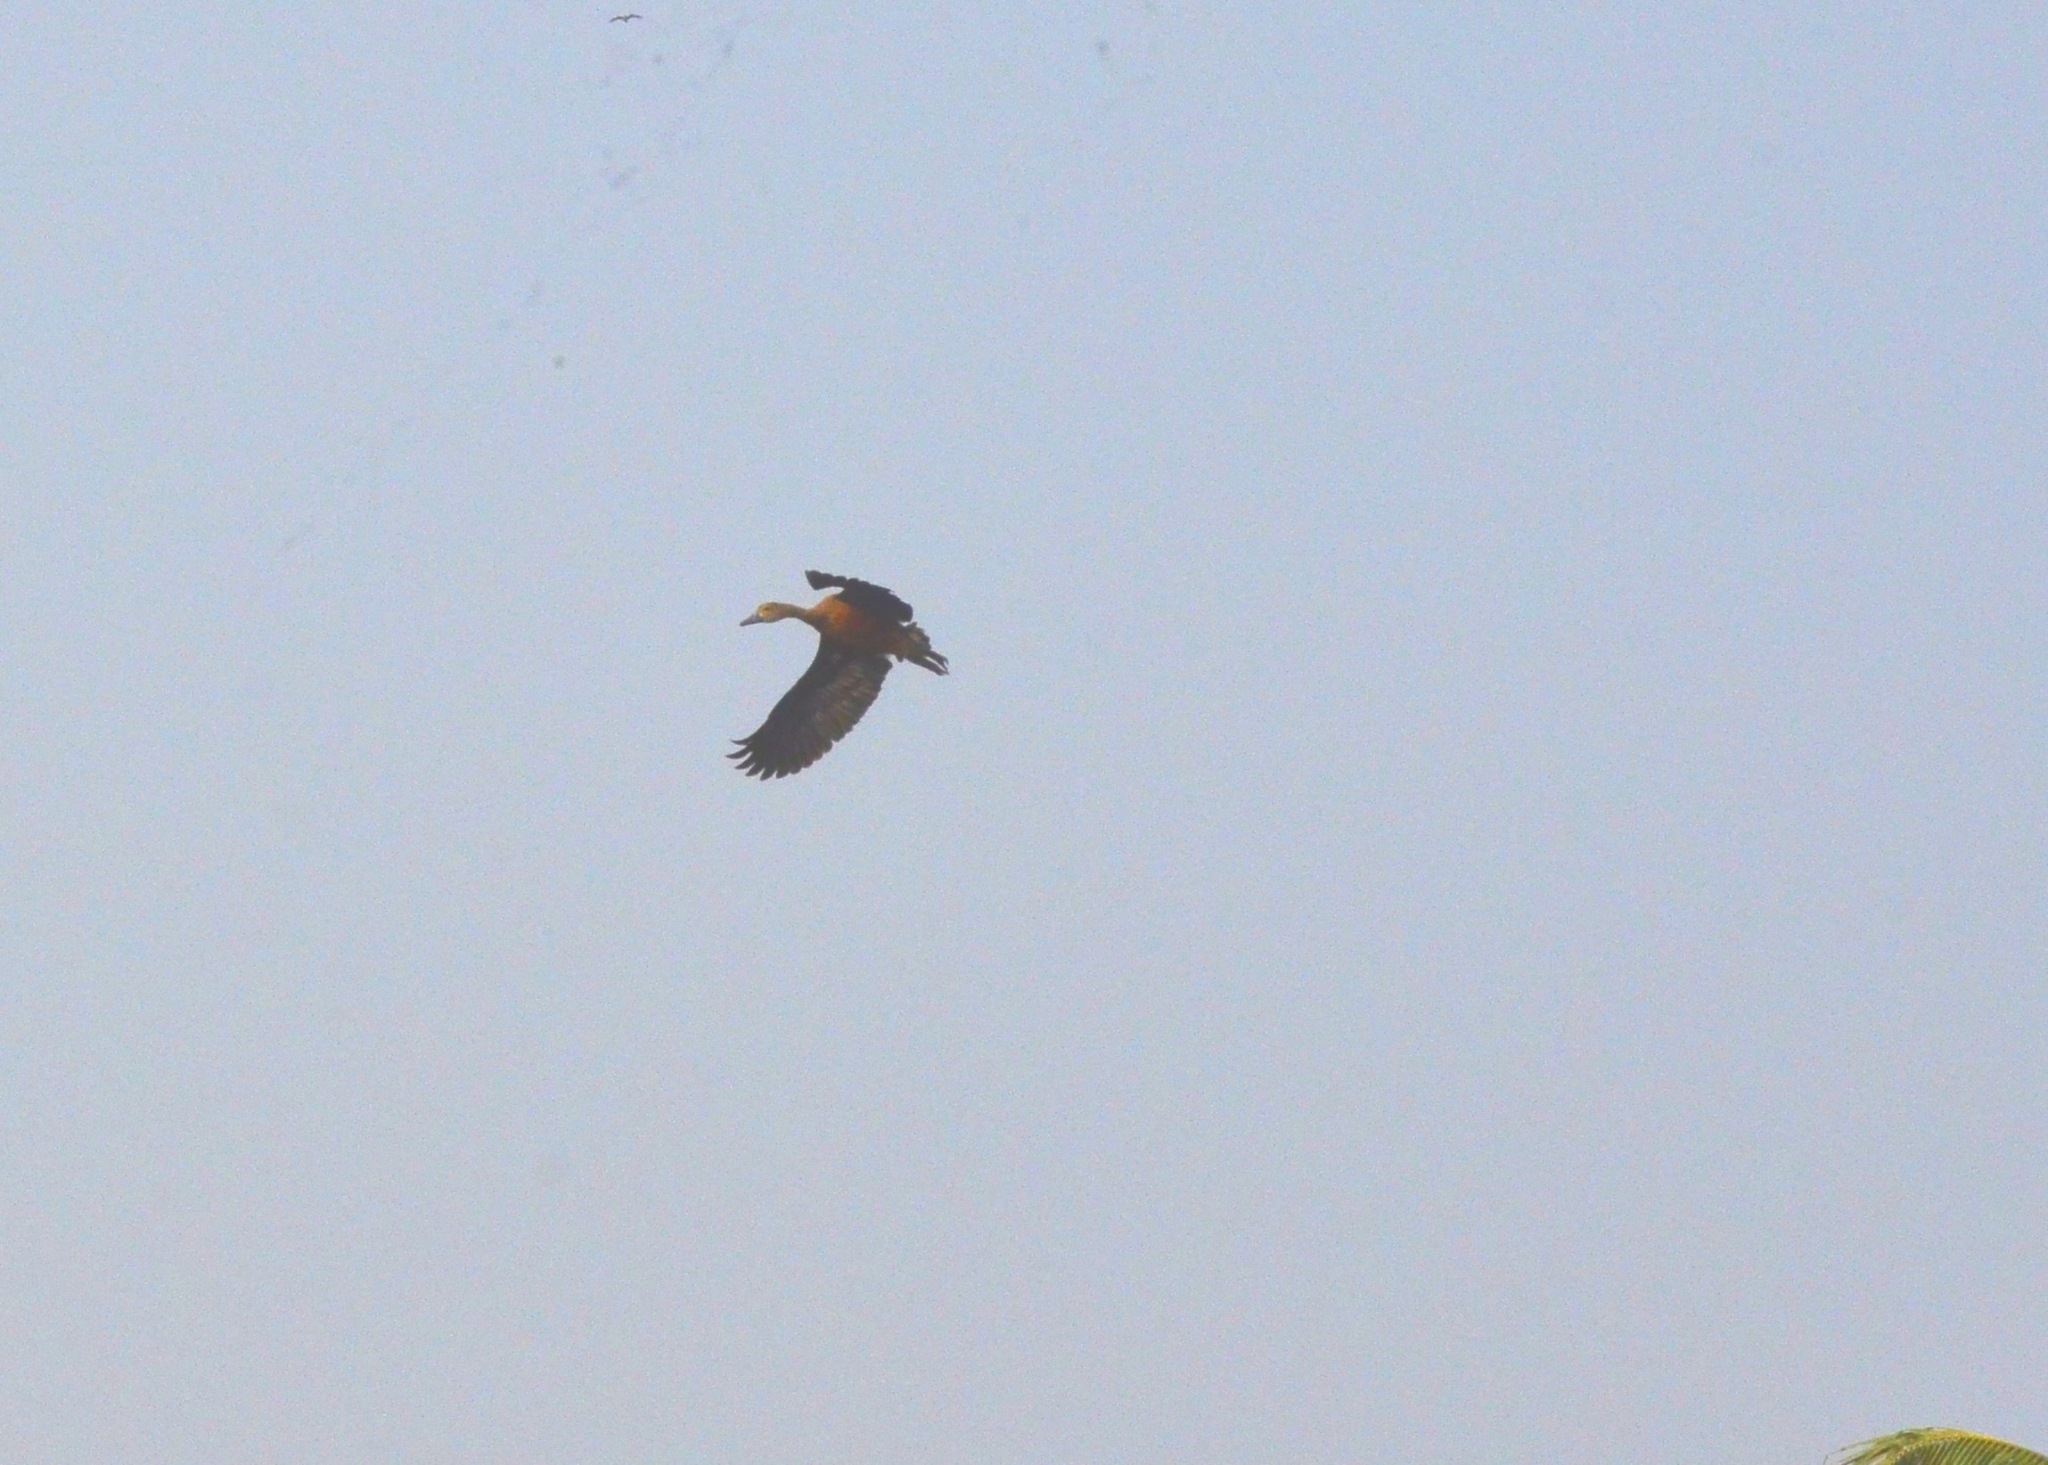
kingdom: Animalia
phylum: Chordata
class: Aves
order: Anseriformes
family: Anatidae
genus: Dendrocygna
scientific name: Dendrocygna javanica
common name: Lesser whistling-duck
